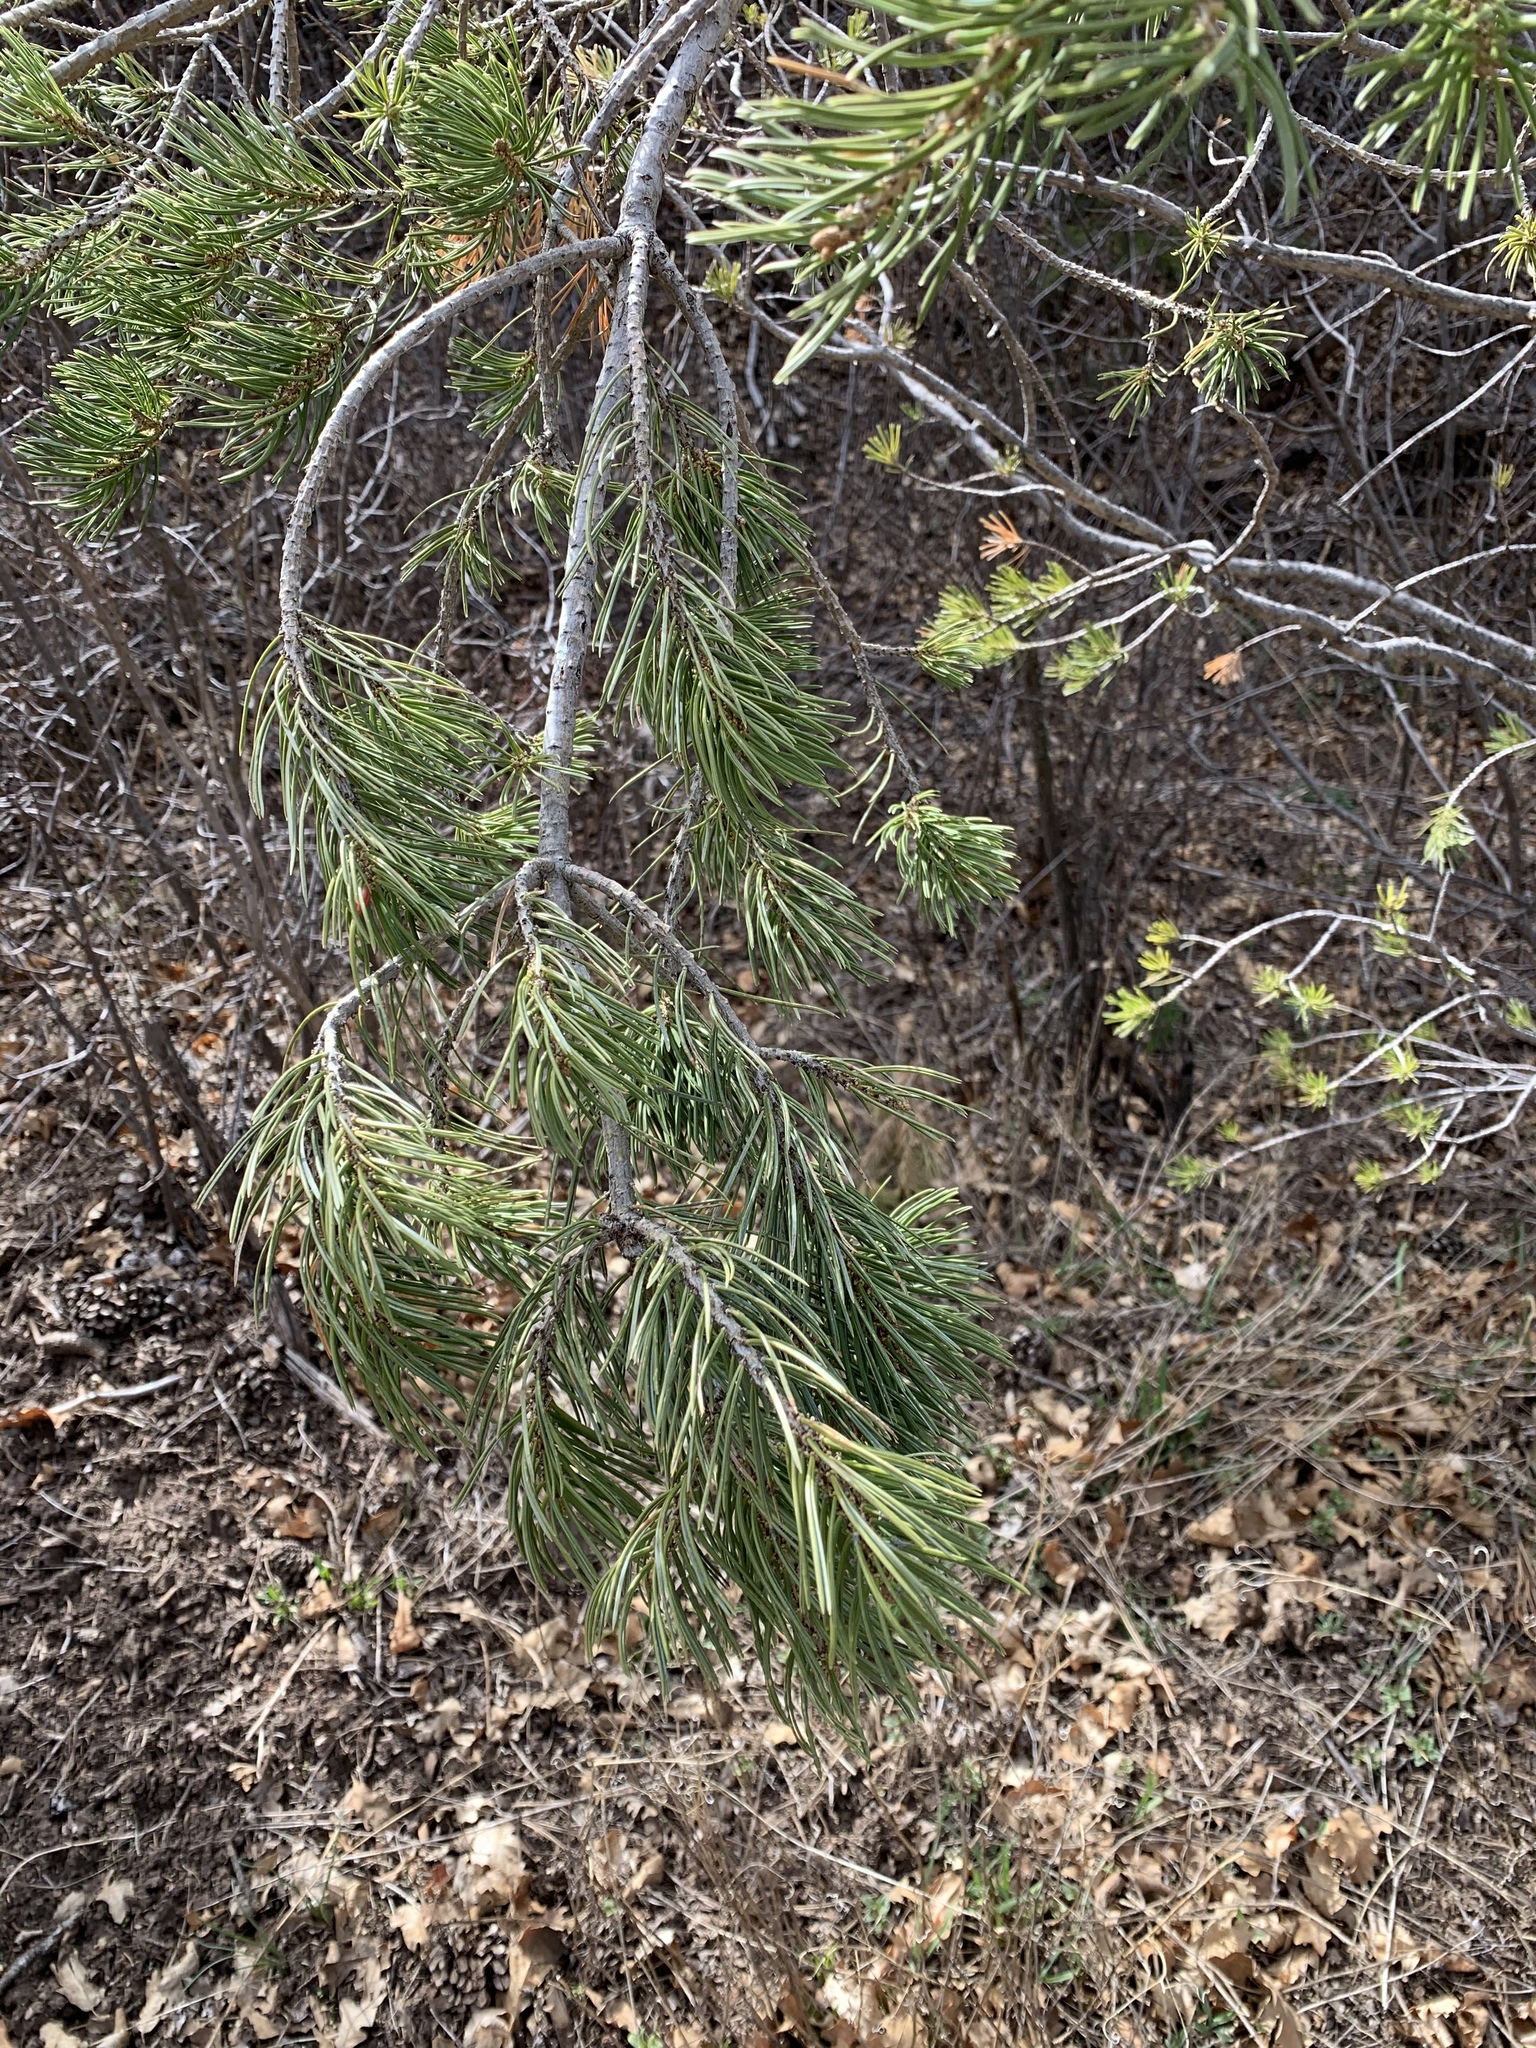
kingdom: Plantae
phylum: Tracheophyta
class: Pinopsida
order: Pinales
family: Pinaceae
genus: Pinus
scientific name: Pinus edulis
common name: Colorado pinyon
